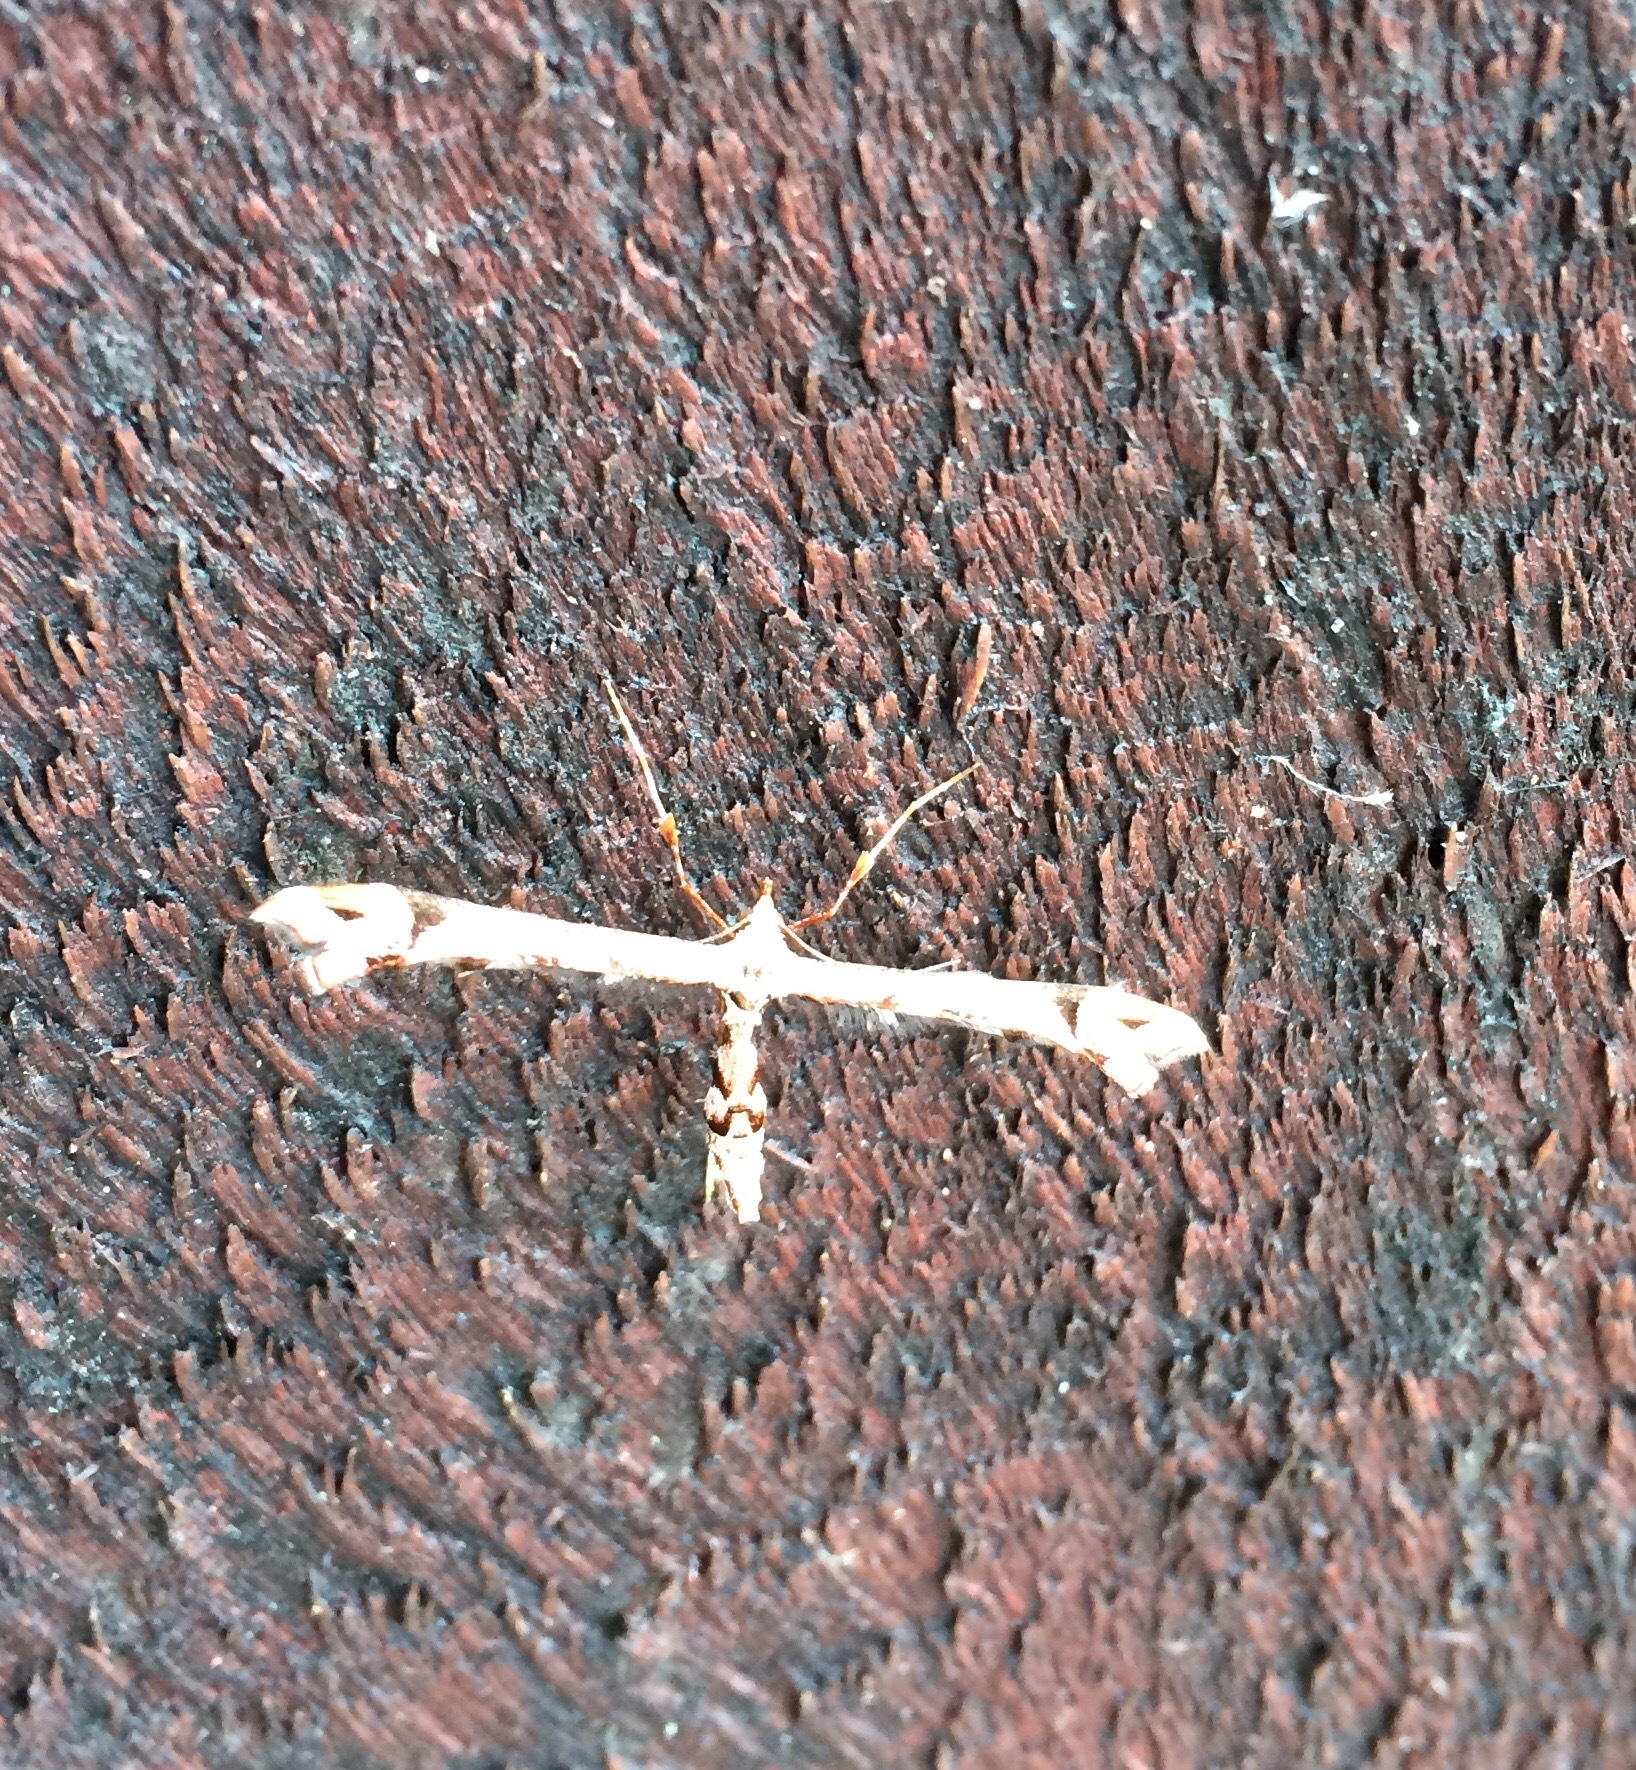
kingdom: Animalia
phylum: Arthropoda
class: Insecta
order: Lepidoptera
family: Pterophoridae
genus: Amblyptilia
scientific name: Amblyptilia falcatalis
